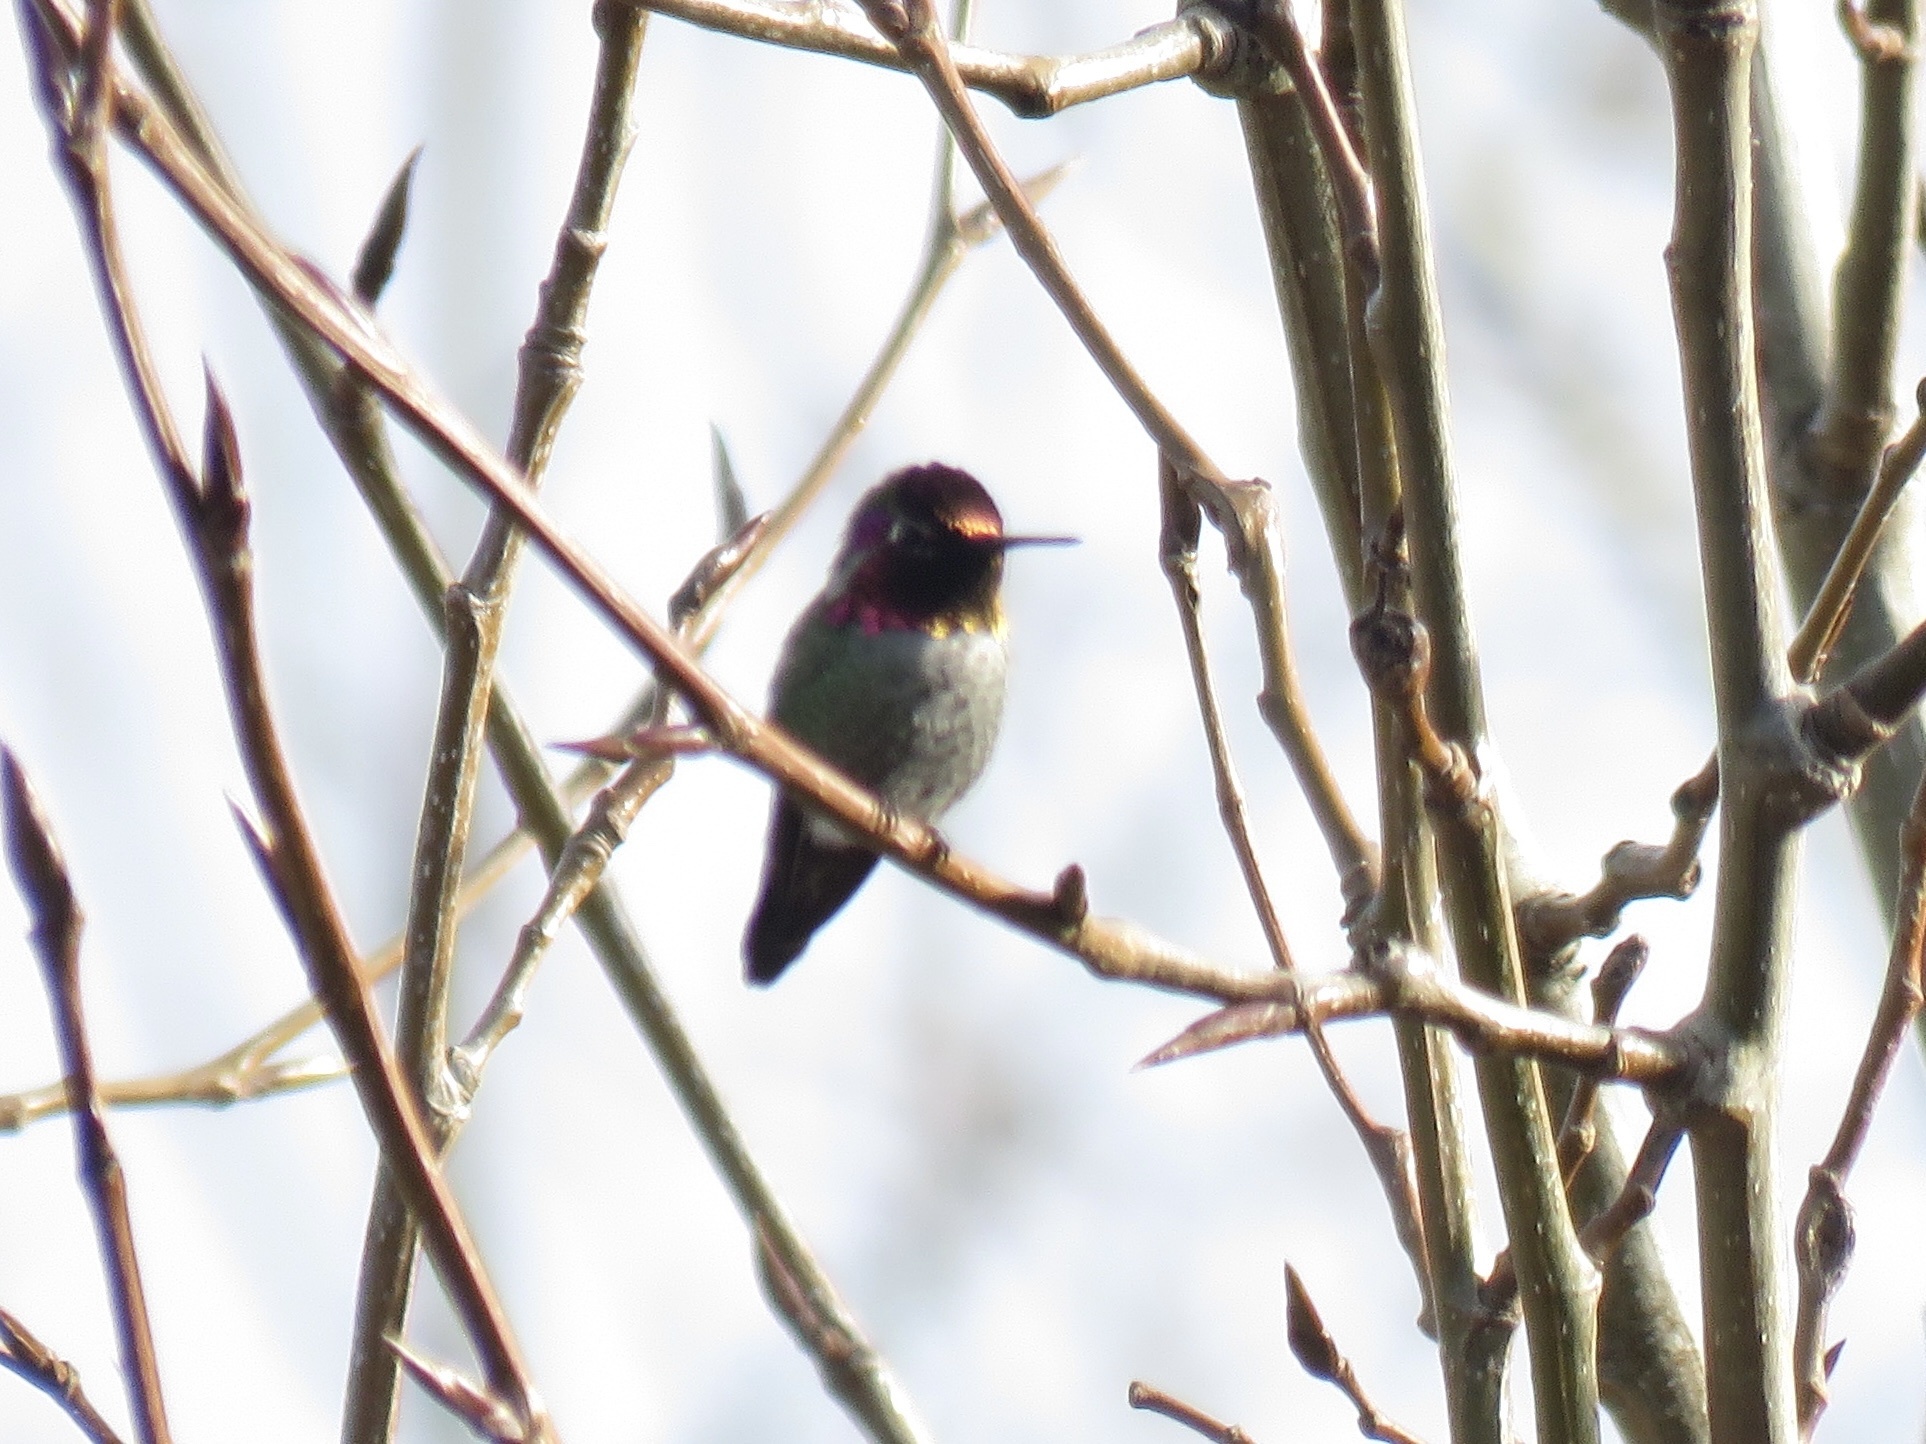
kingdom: Animalia
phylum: Chordata
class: Aves
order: Apodiformes
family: Trochilidae
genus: Calypte
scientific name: Calypte anna
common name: Anna's hummingbird
